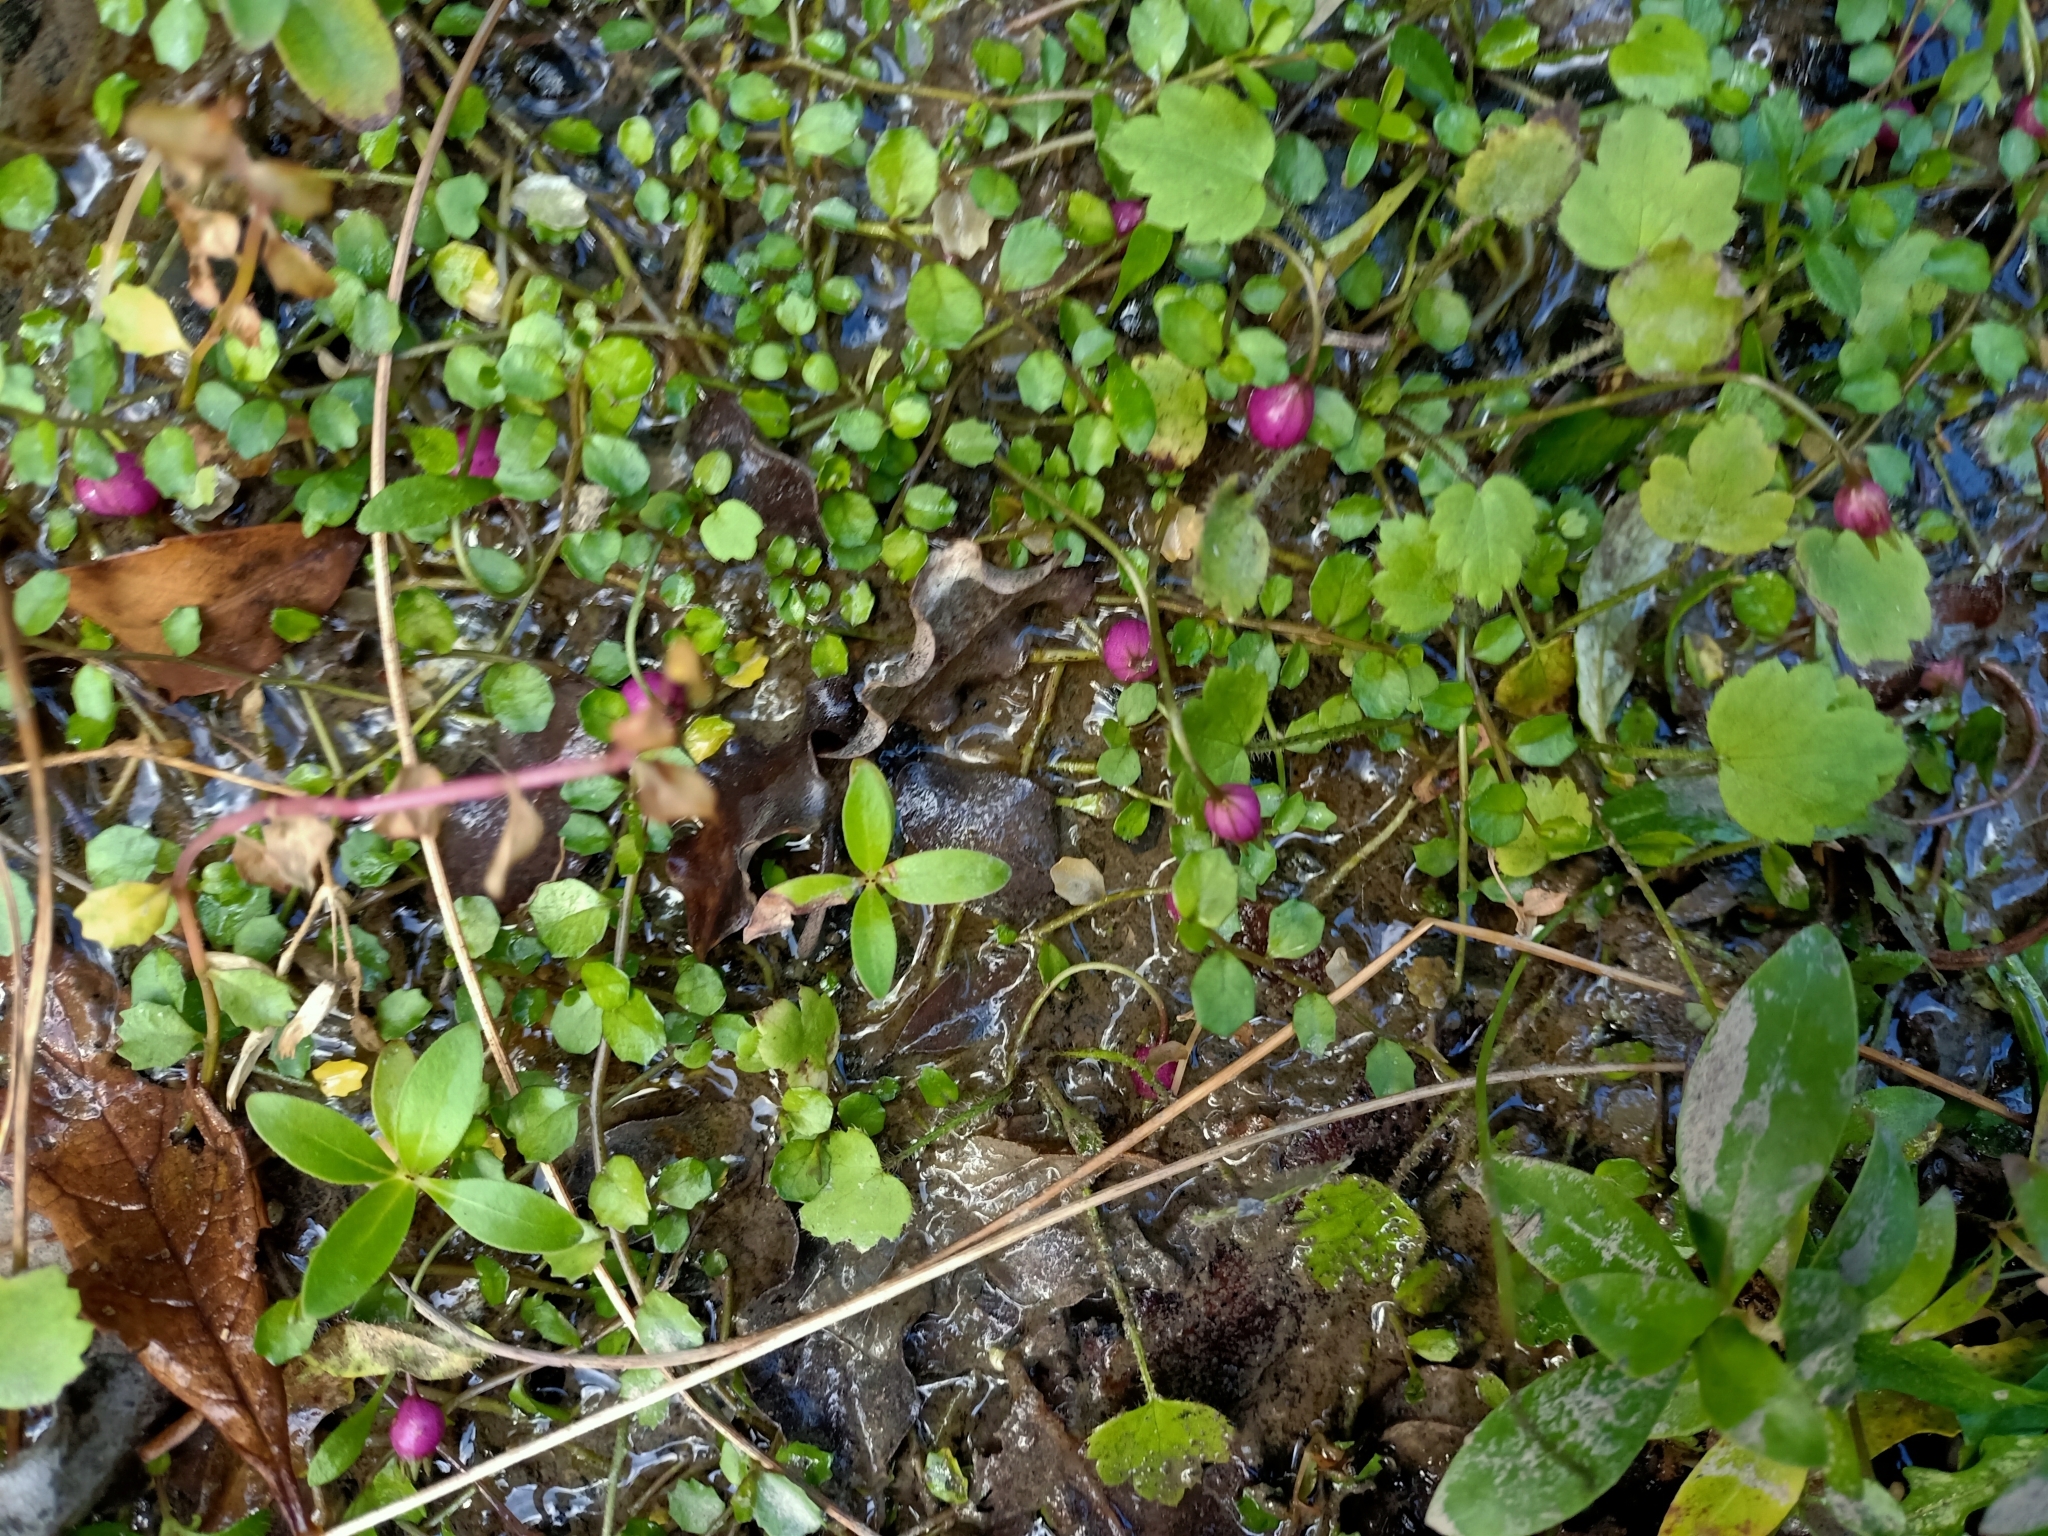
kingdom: Plantae
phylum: Tracheophyta
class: Magnoliopsida
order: Asterales
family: Campanulaceae
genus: Lobelia
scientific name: Lobelia angulata
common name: Lawn lobelia
